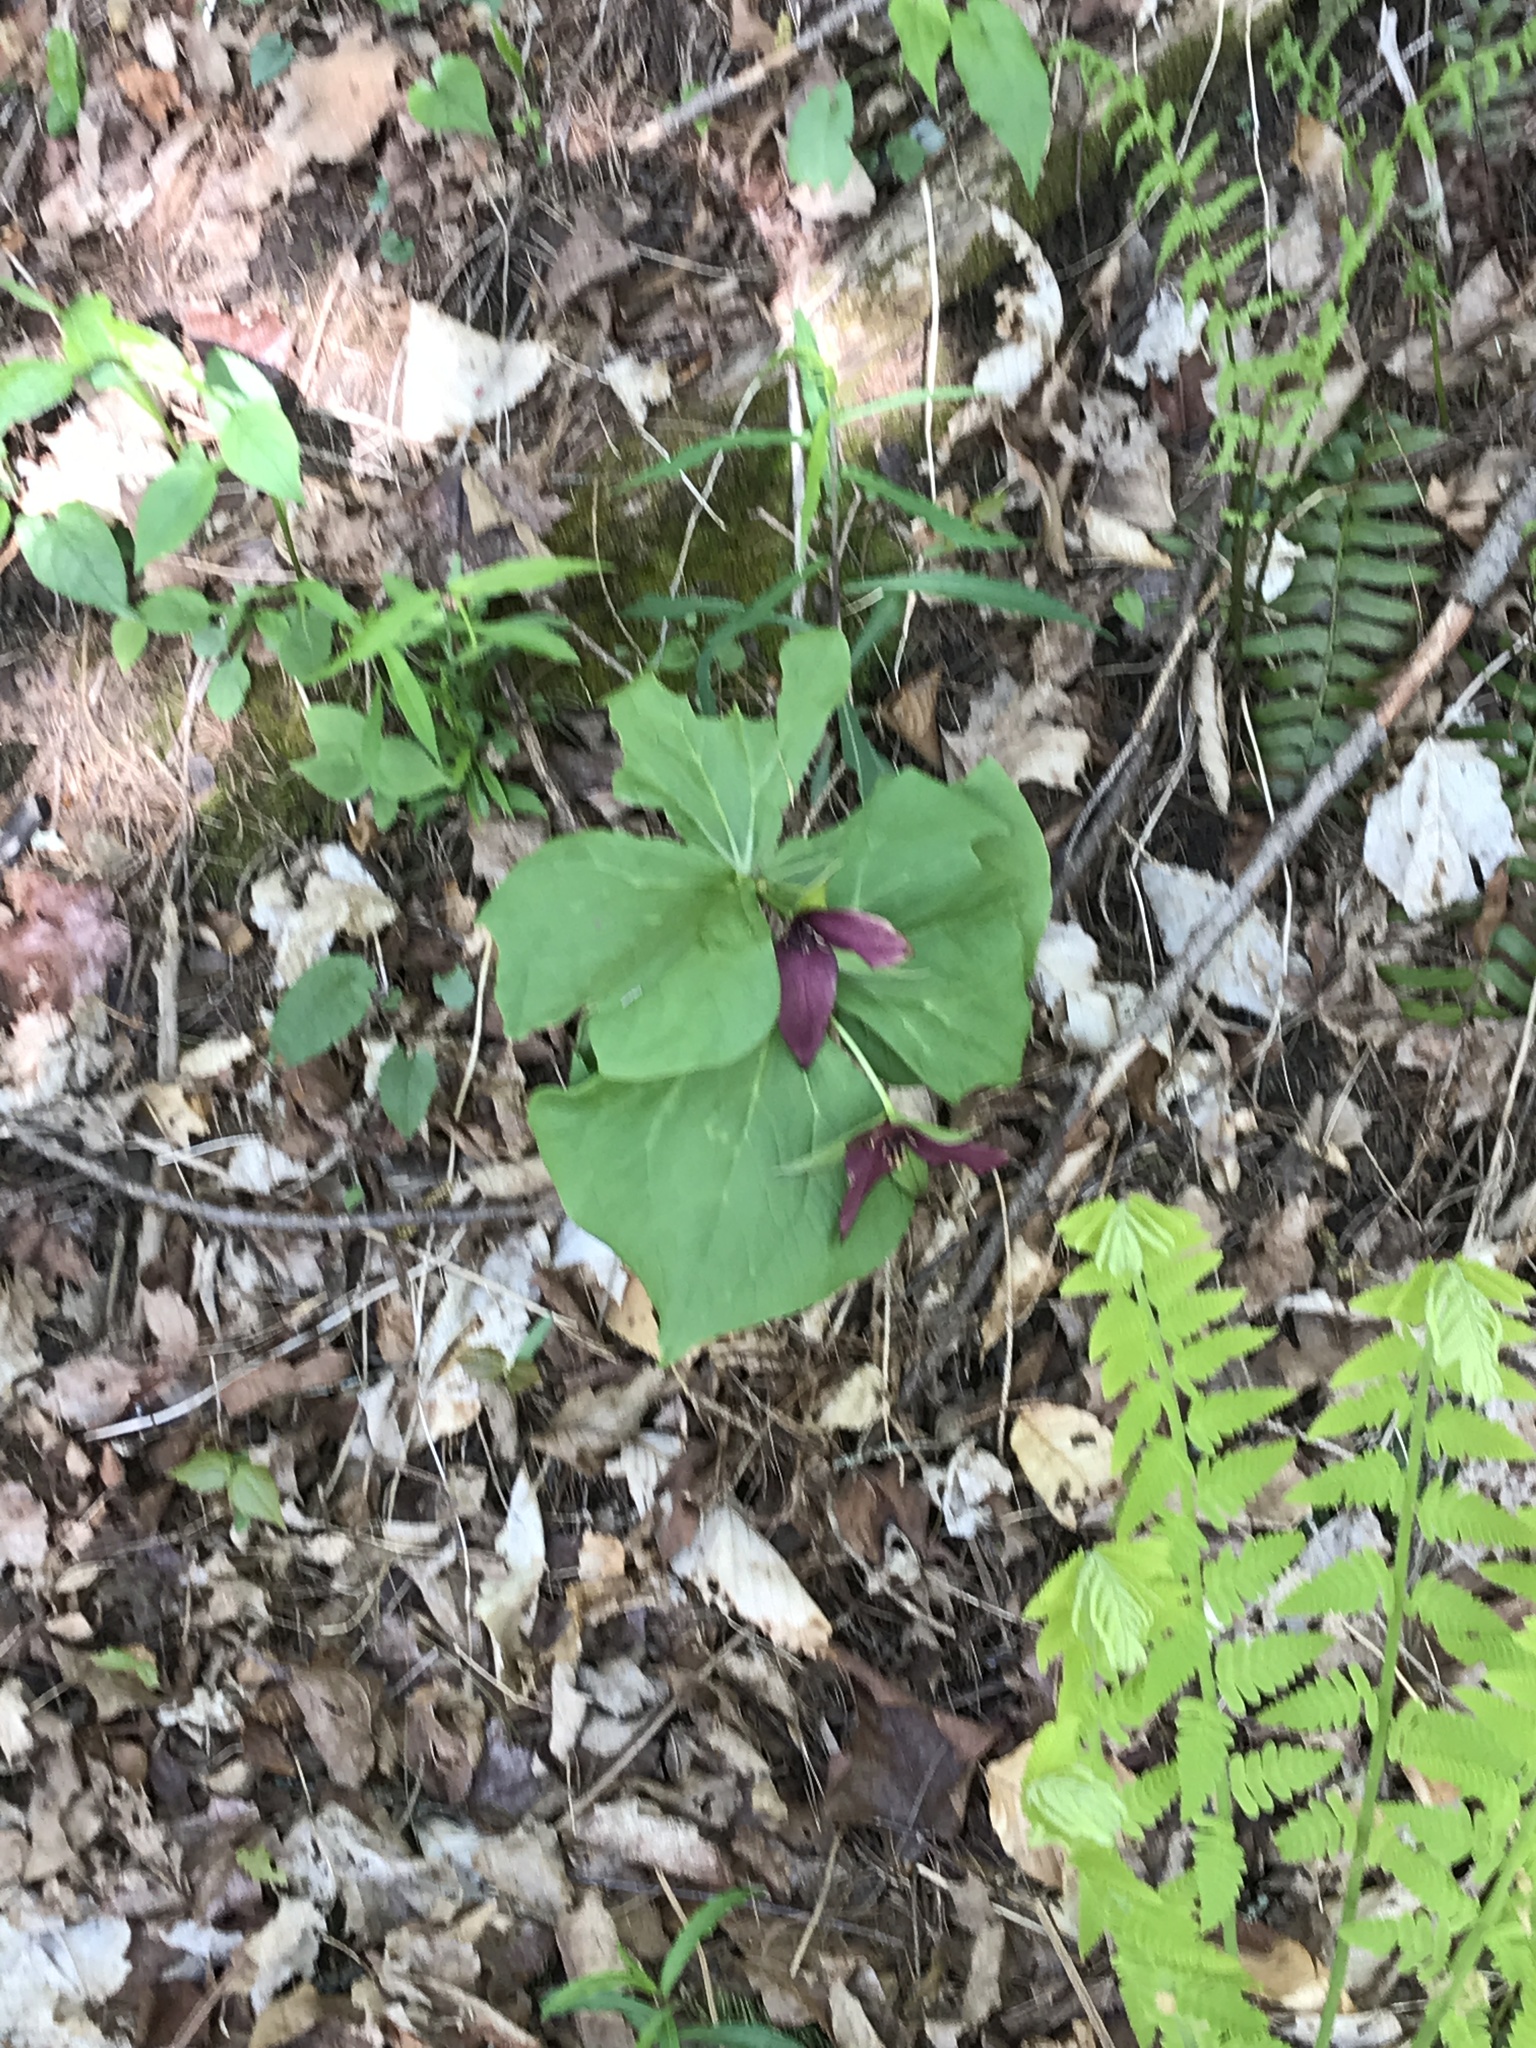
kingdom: Plantae
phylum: Tracheophyta
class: Liliopsida
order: Liliales
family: Melanthiaceae
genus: Trillium
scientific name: Trillium erectum
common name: Purple trillium
